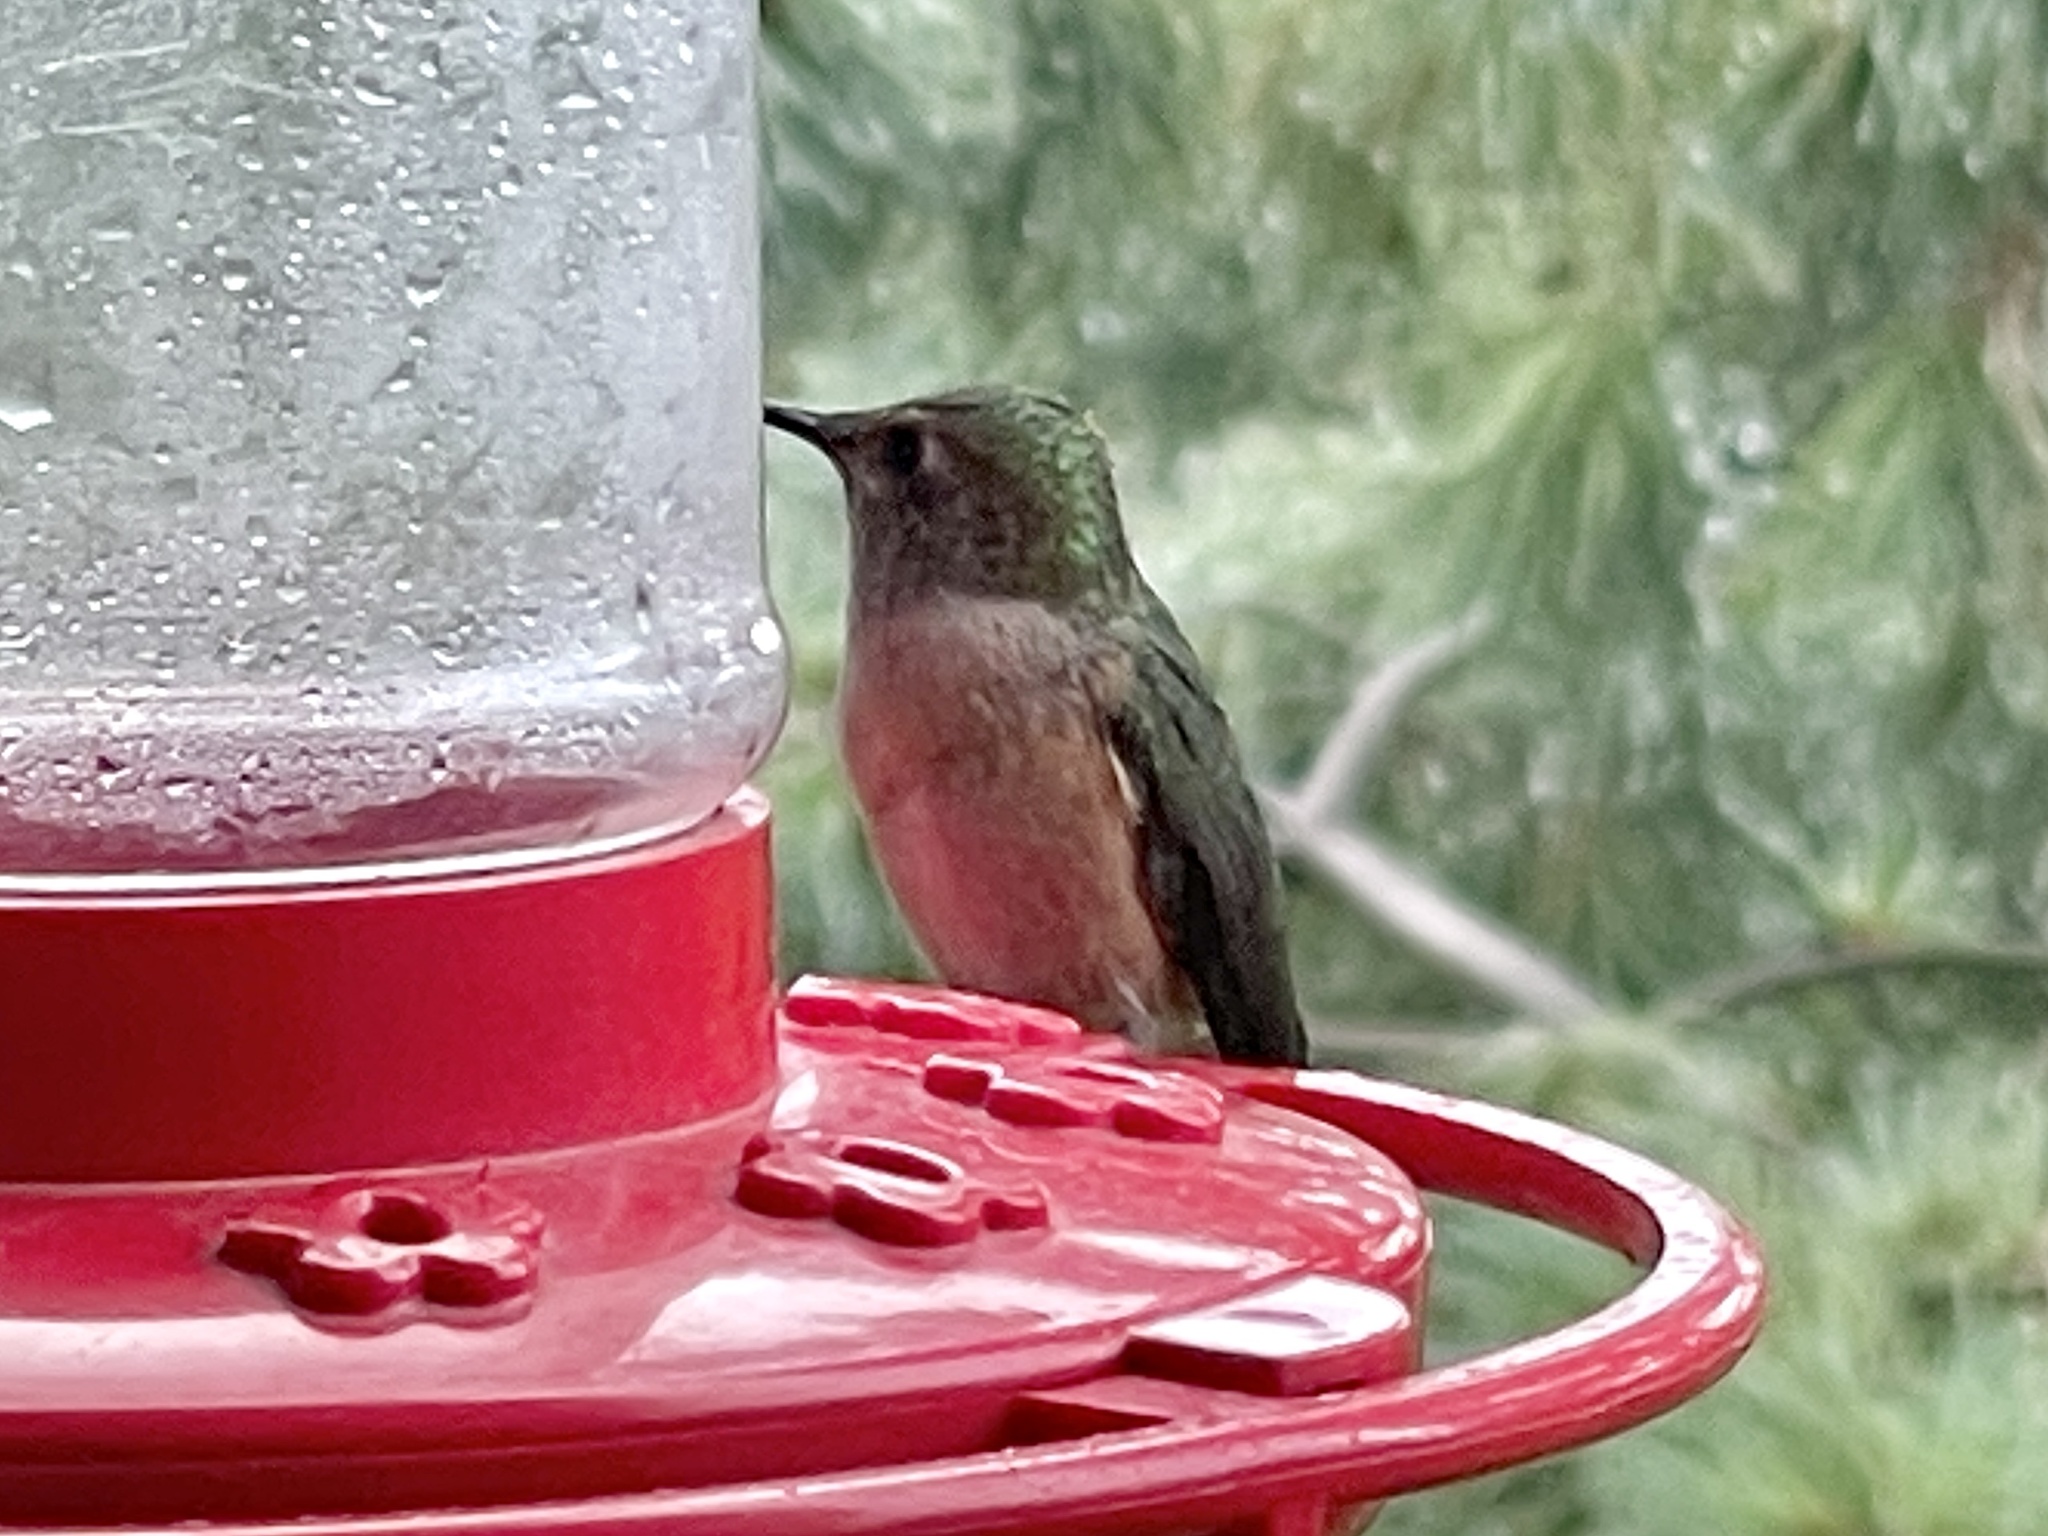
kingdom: Animalia
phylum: Chordata
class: Aves
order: Apodiformes
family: Trochilidae
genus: Selasphorus
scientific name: Selasphorus platycercus
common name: Broad-tailed hummingbird
